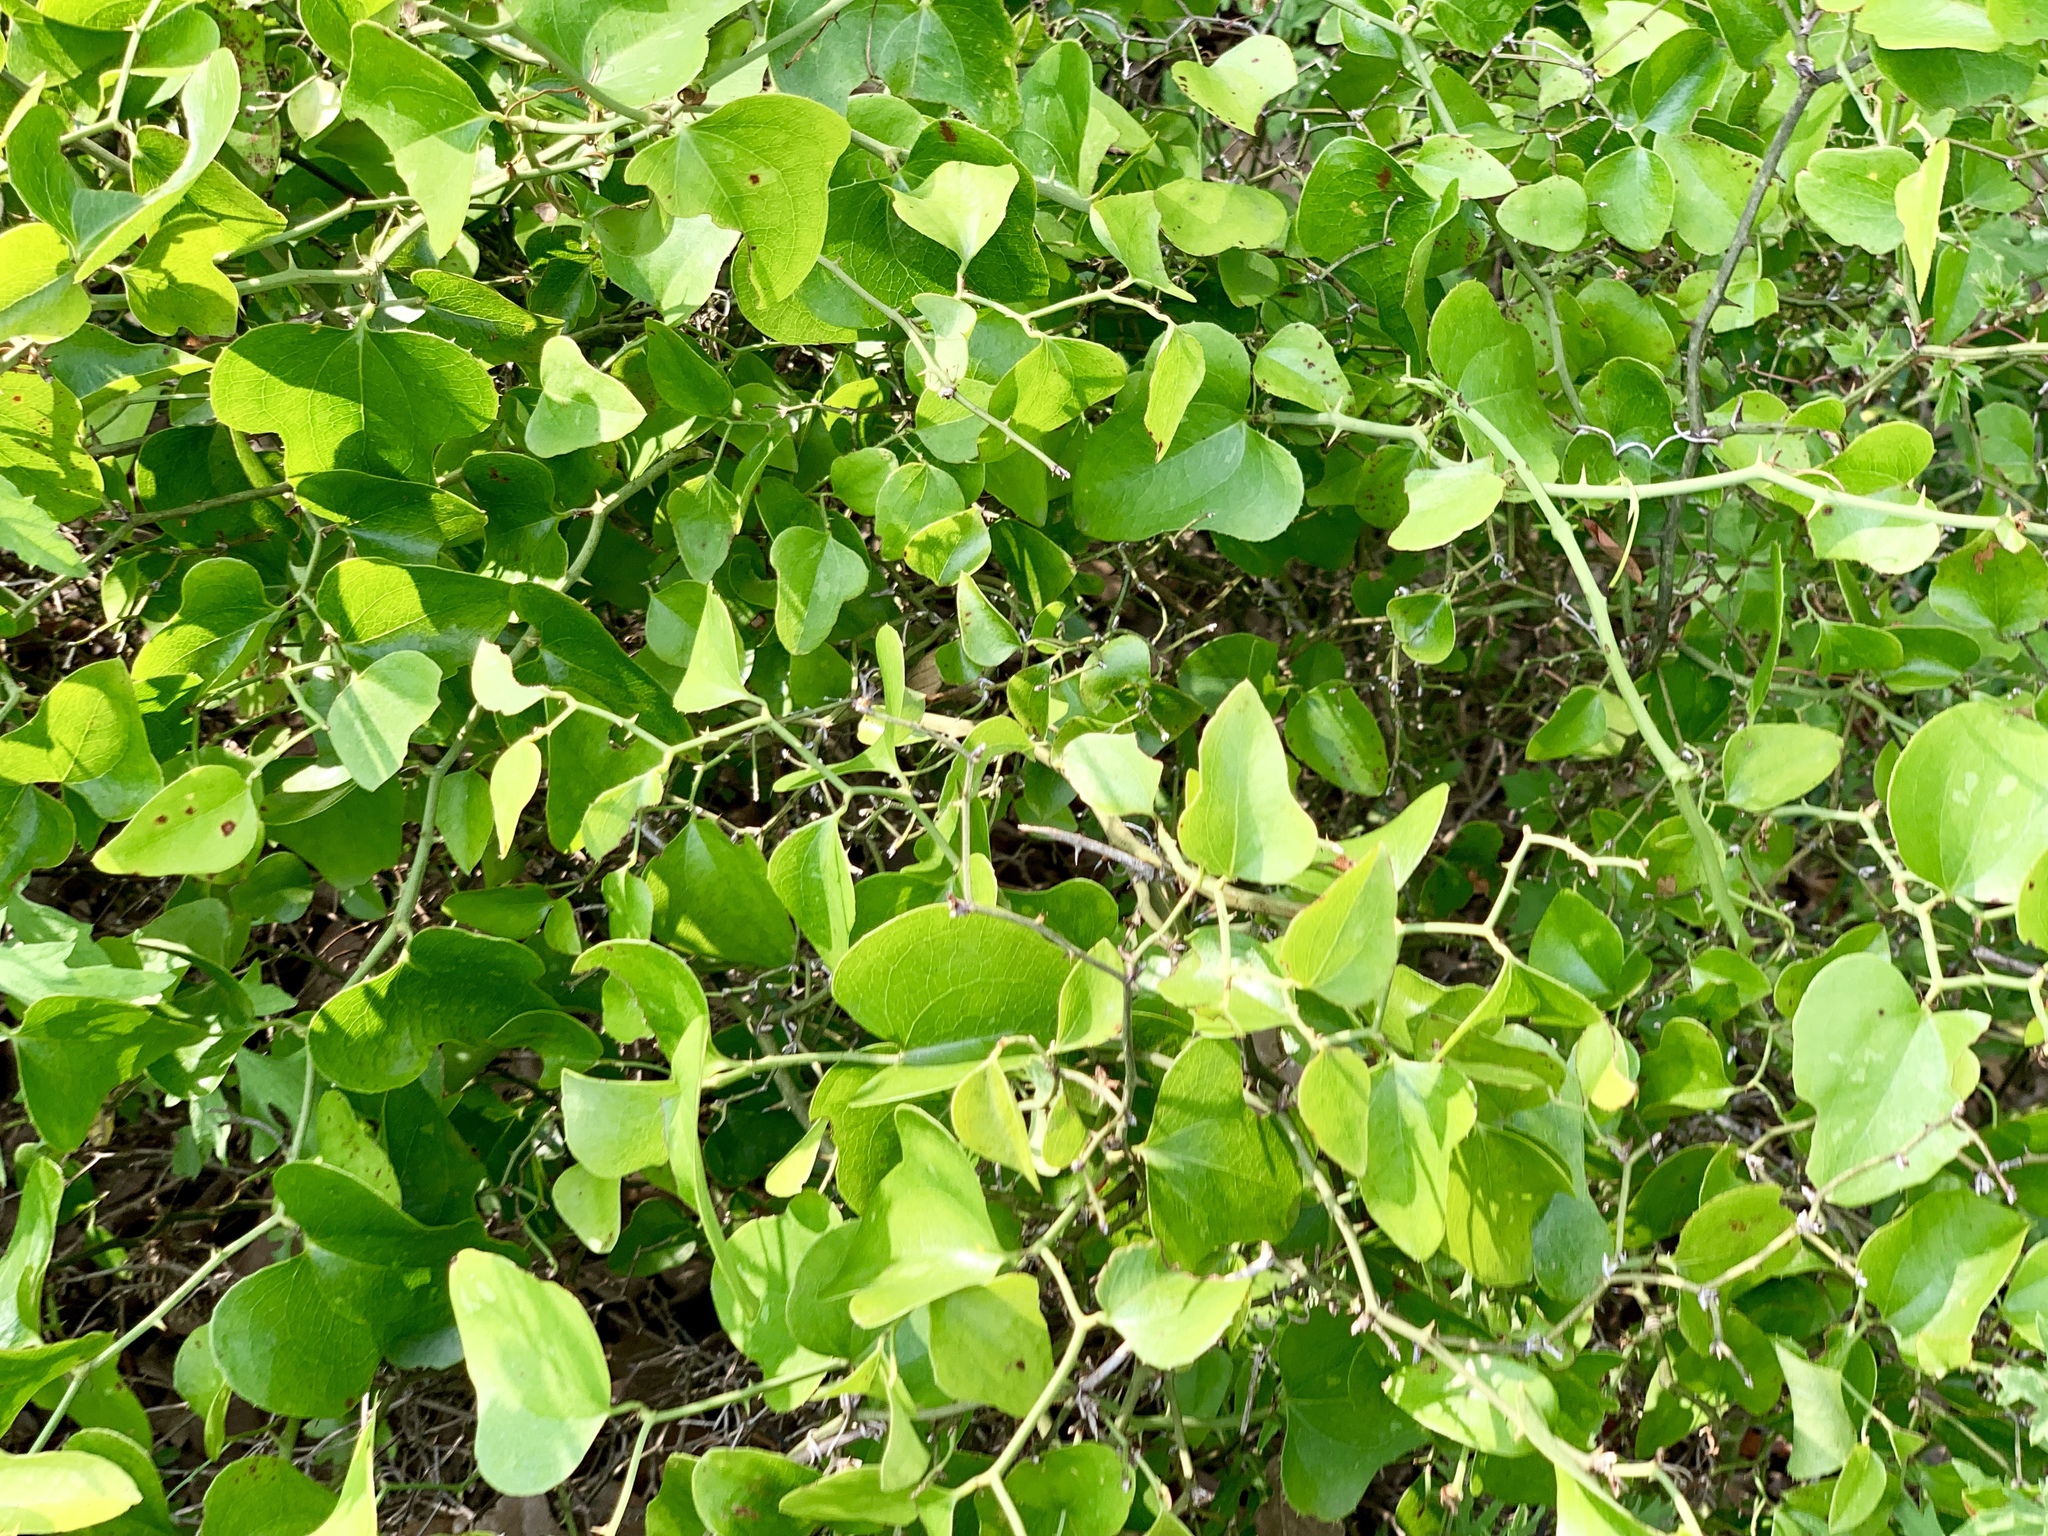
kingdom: Plantae
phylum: Tracheophyta
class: Liliopsida
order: Liliales
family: Smilacaceae
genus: Smilax
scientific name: Smilax bona-nox
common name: Catbrier
